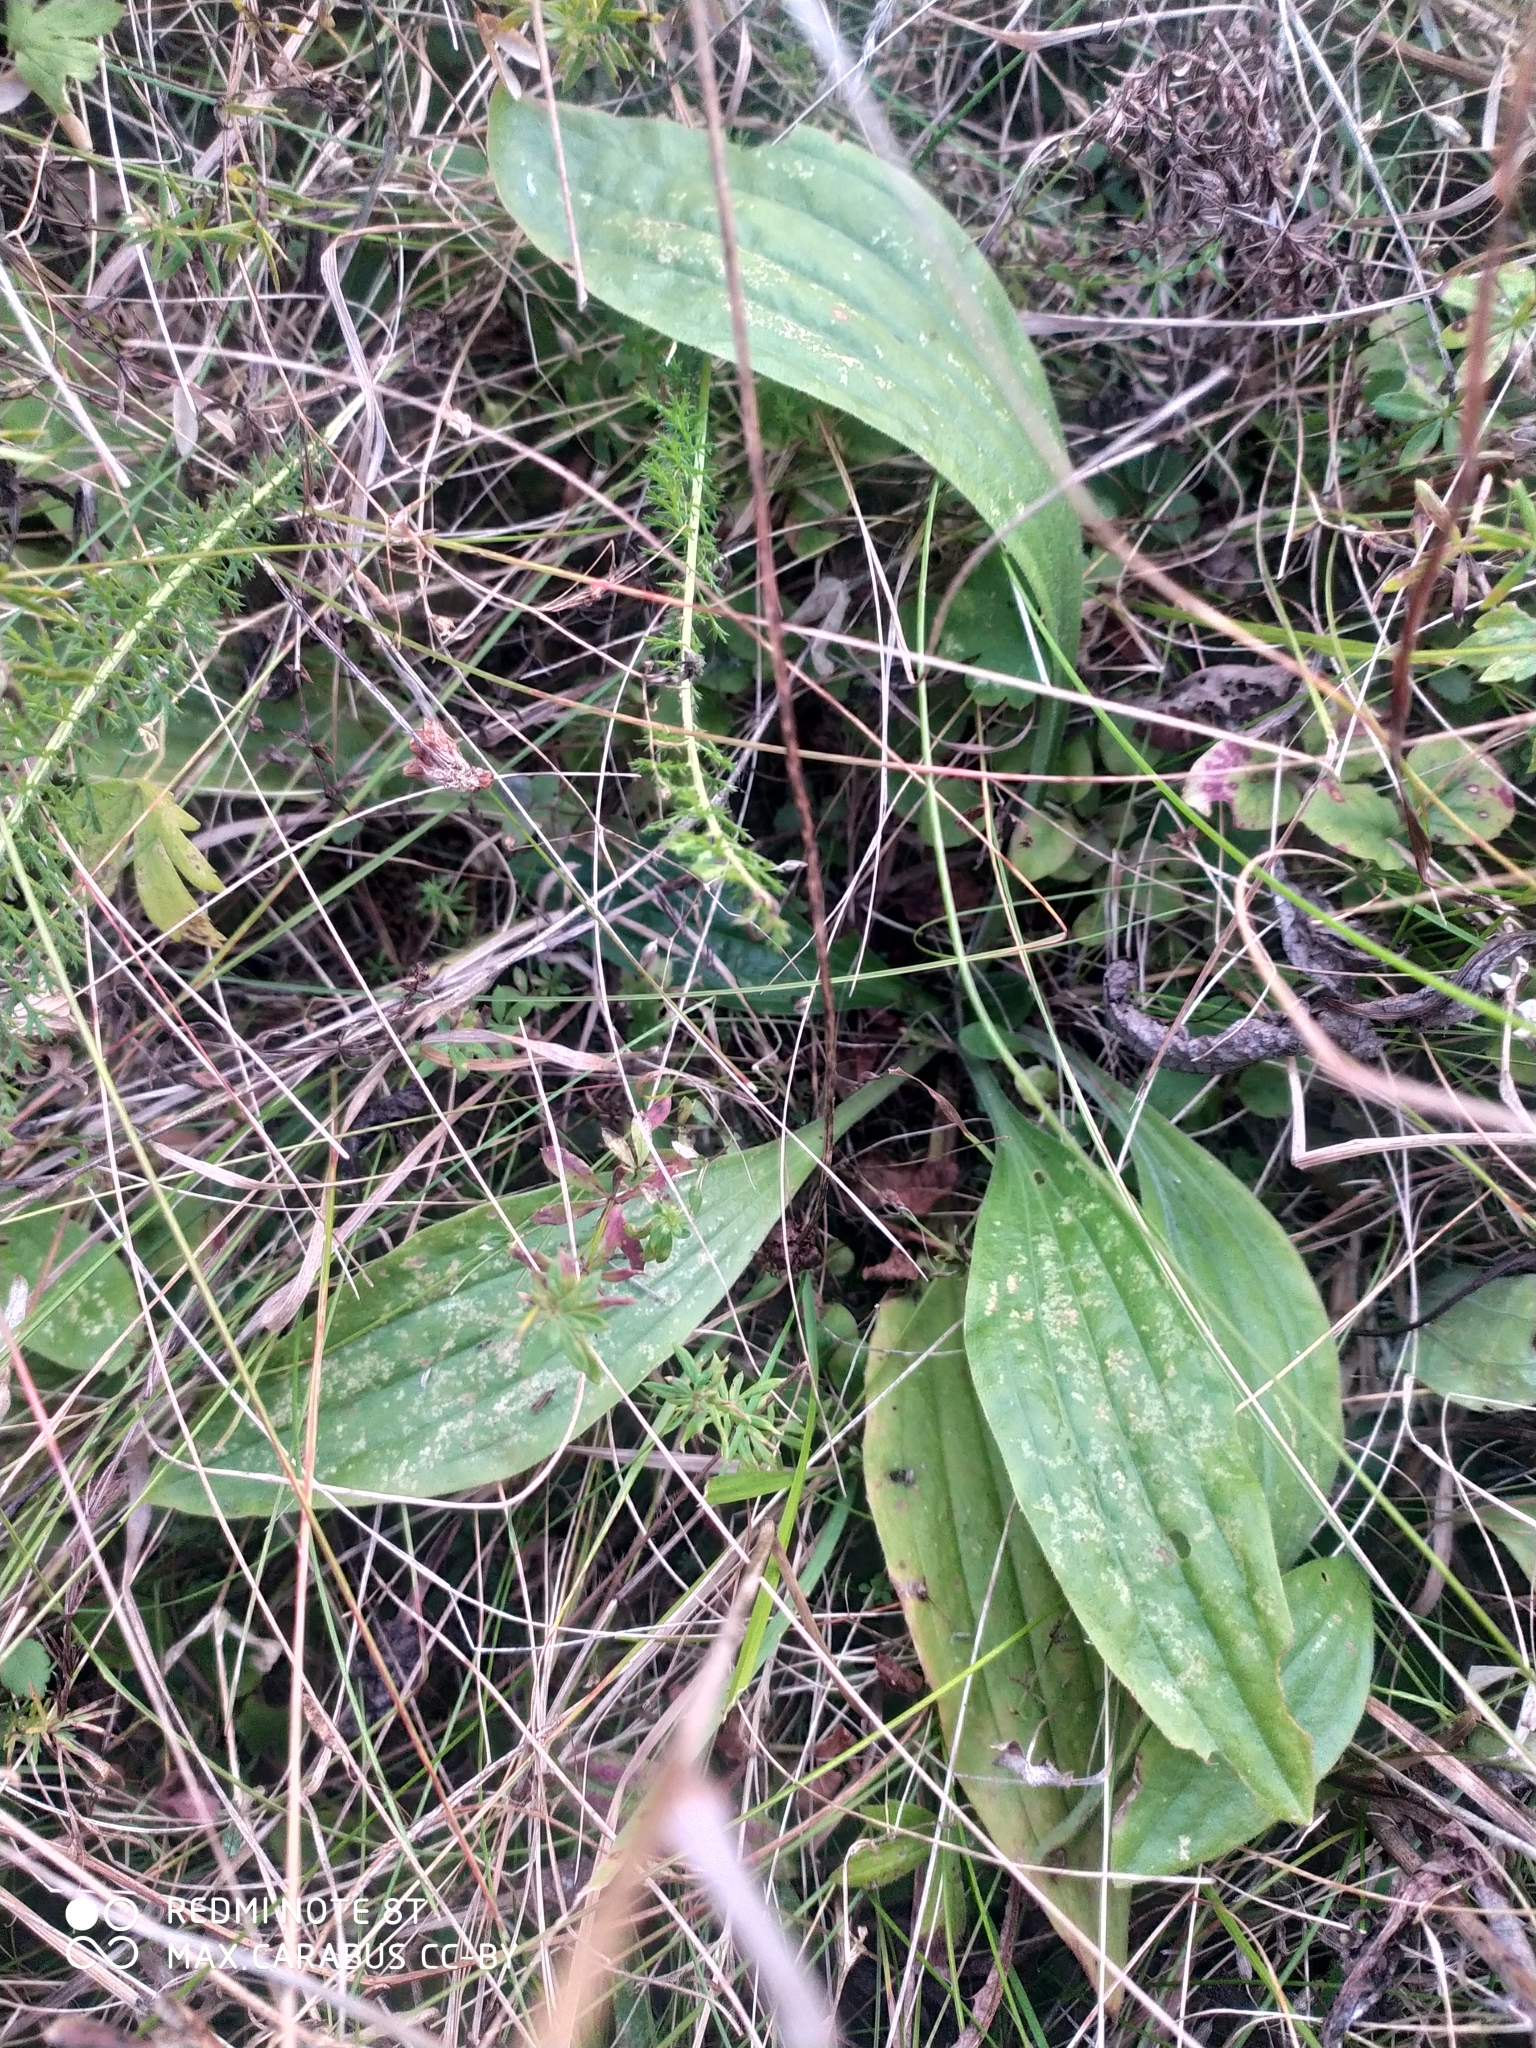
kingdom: Plantae
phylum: Tracheophyta
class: Magnoliopsida
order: Lamiales
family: Plantaginaceae
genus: Plantago
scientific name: Plantago media
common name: Hoary plantain
